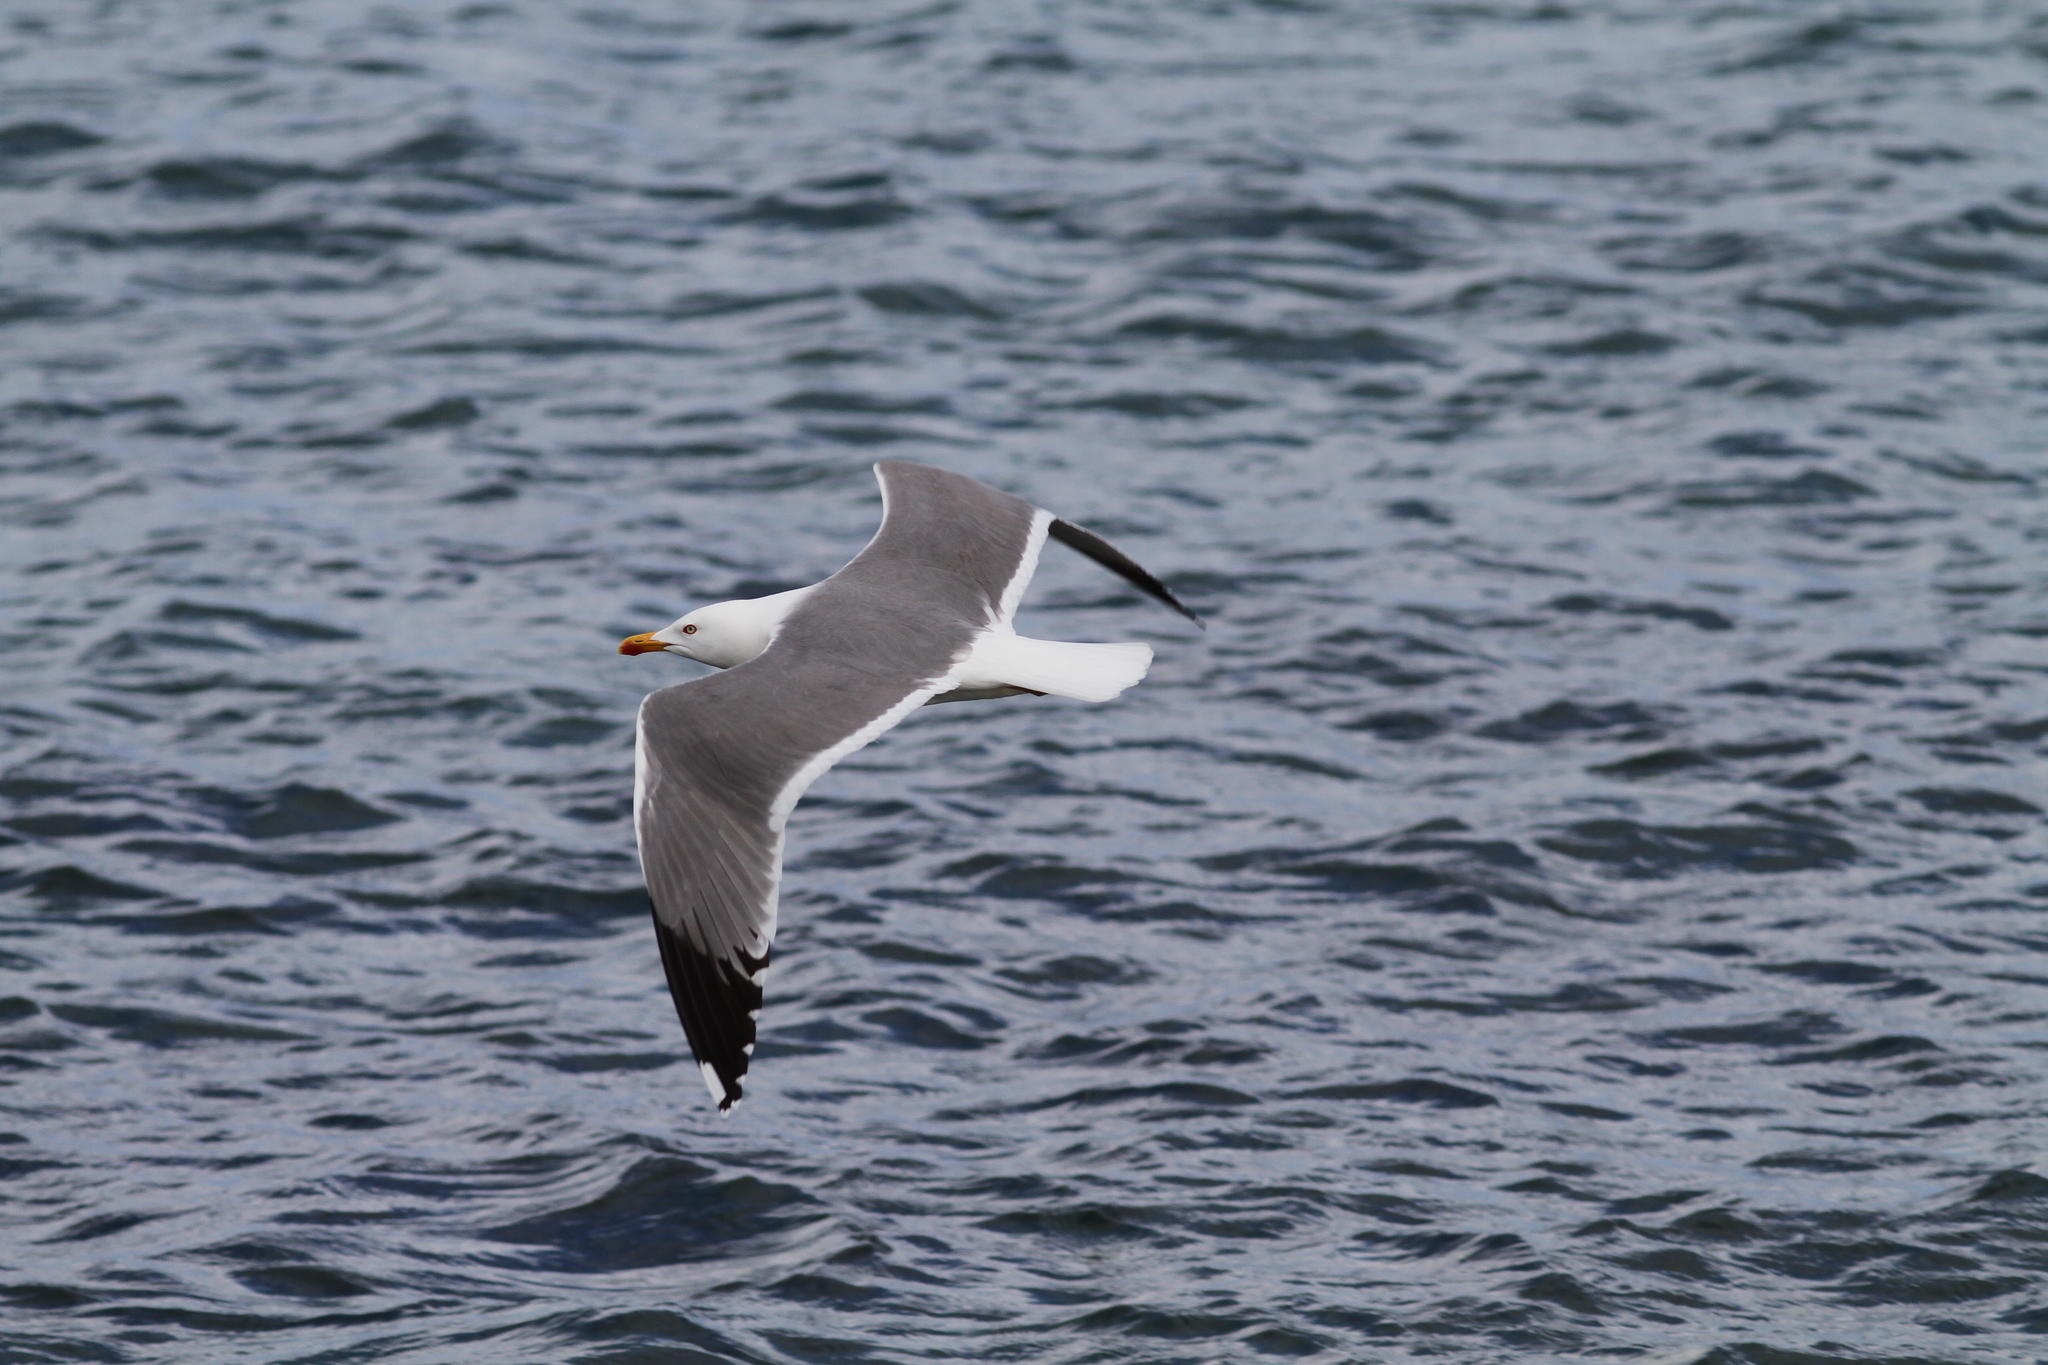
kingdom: Animalia
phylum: Chordata
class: Aves
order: Charadriiformes
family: Laridae
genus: Larus
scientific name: Larus michahellis
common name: Yellow-legged gull
